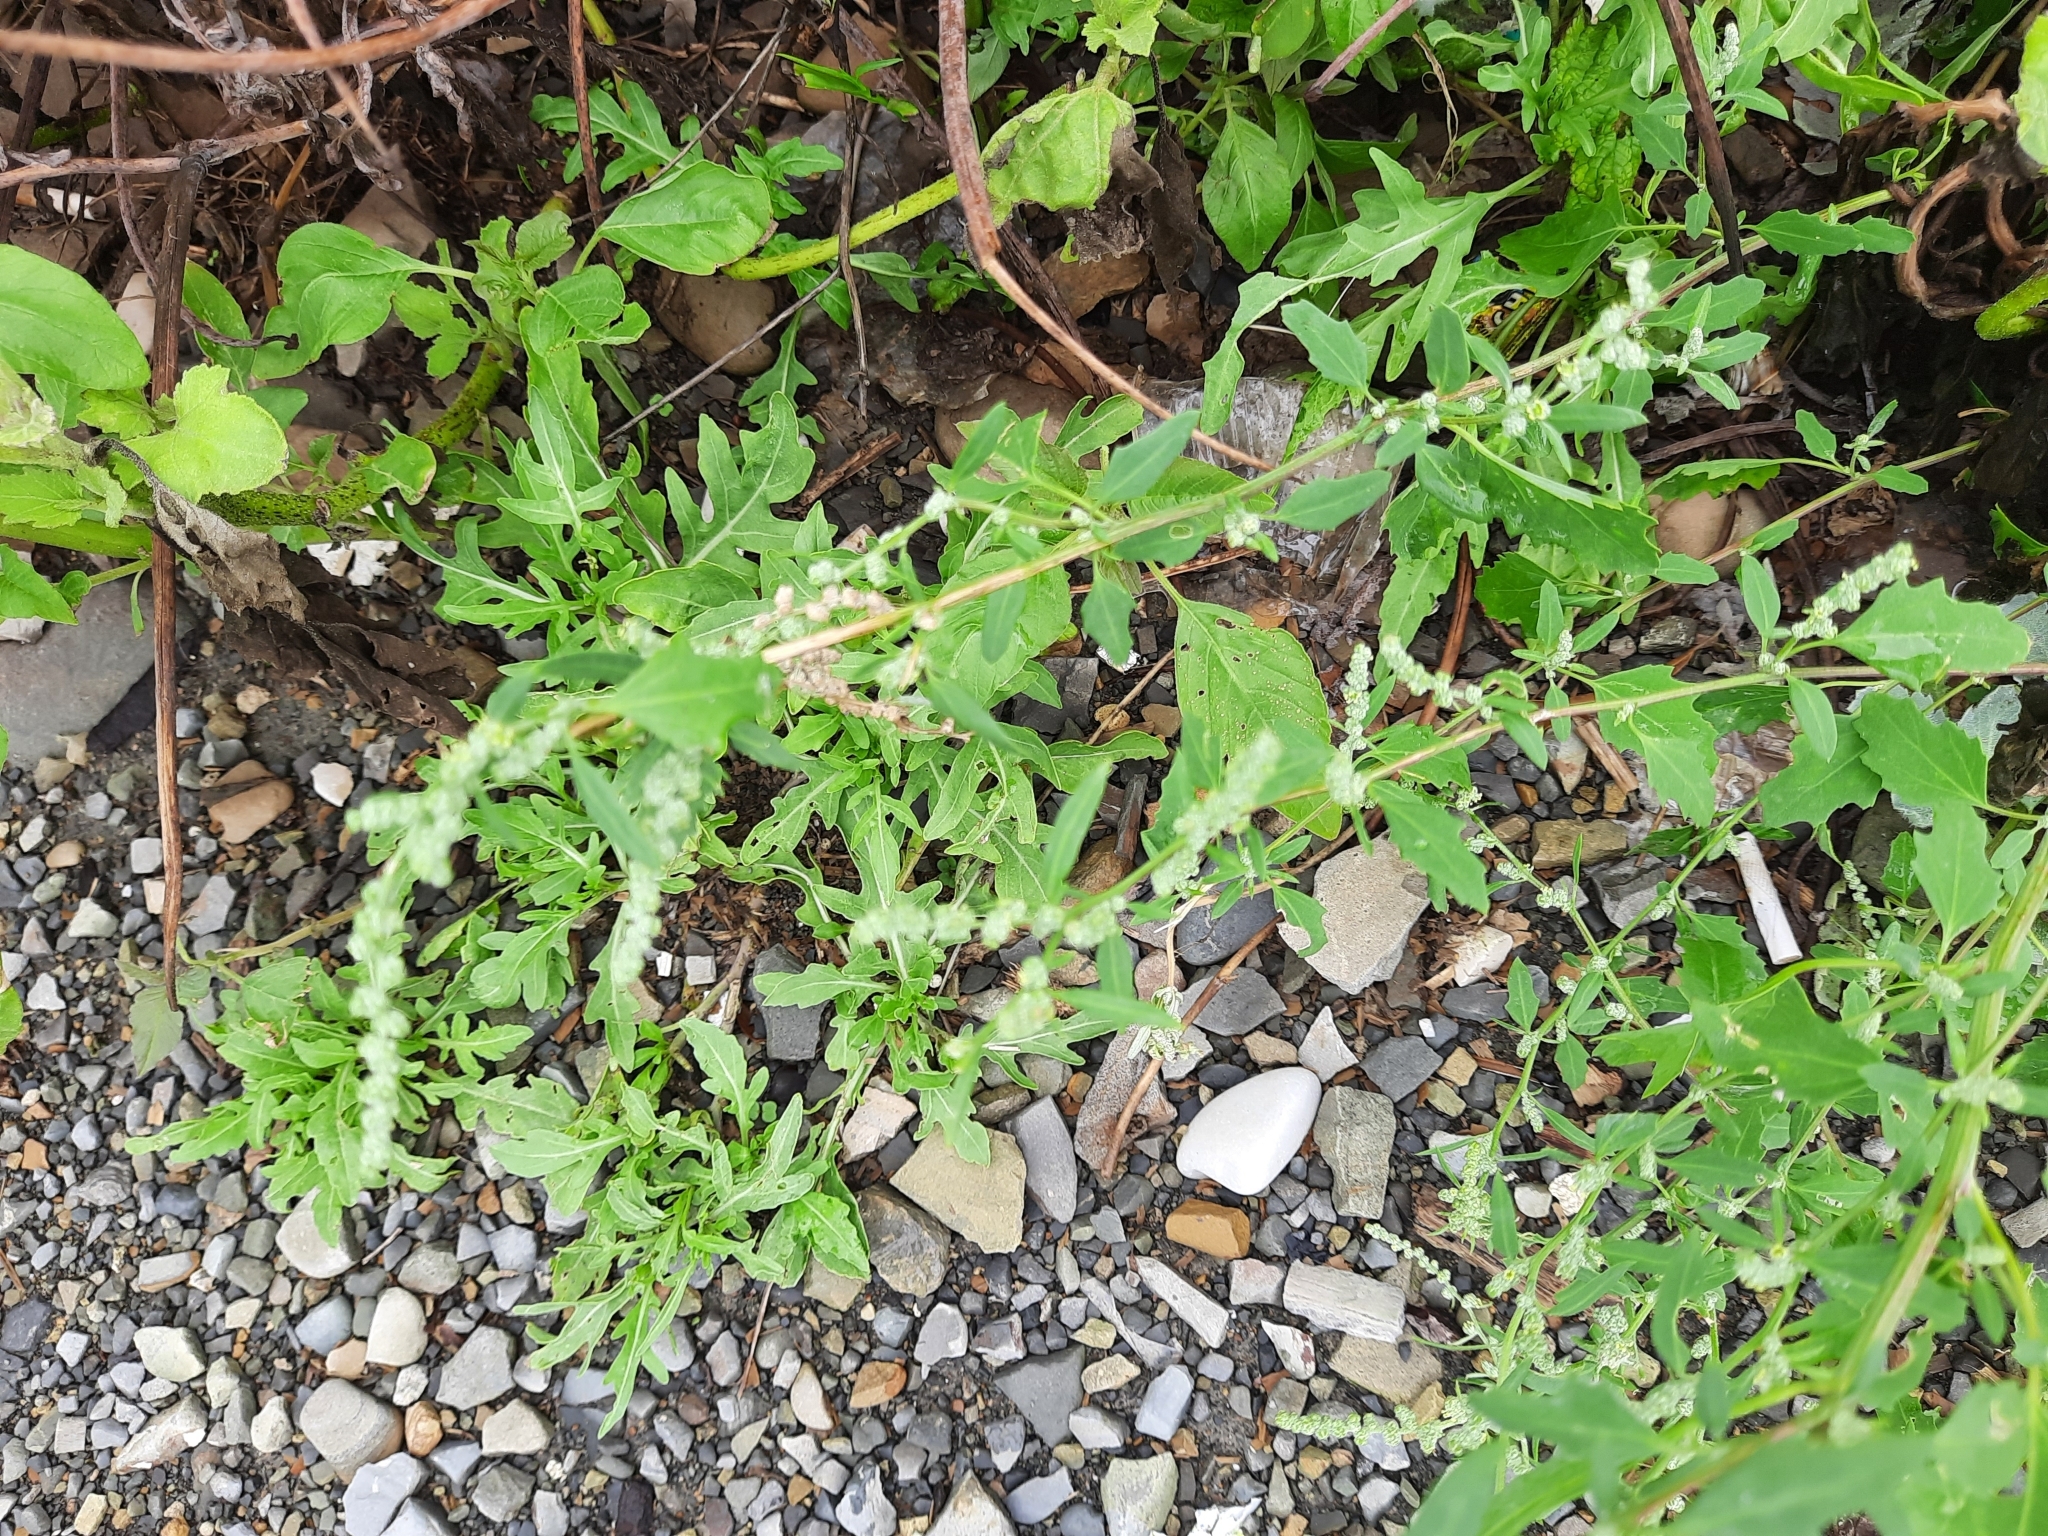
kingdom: Plantae
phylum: Tracheophyta
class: Magnoliopsida
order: Caryophyllales
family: Amaranthaceae
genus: Chenopodium
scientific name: Chenopodium album
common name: Fat-hen
